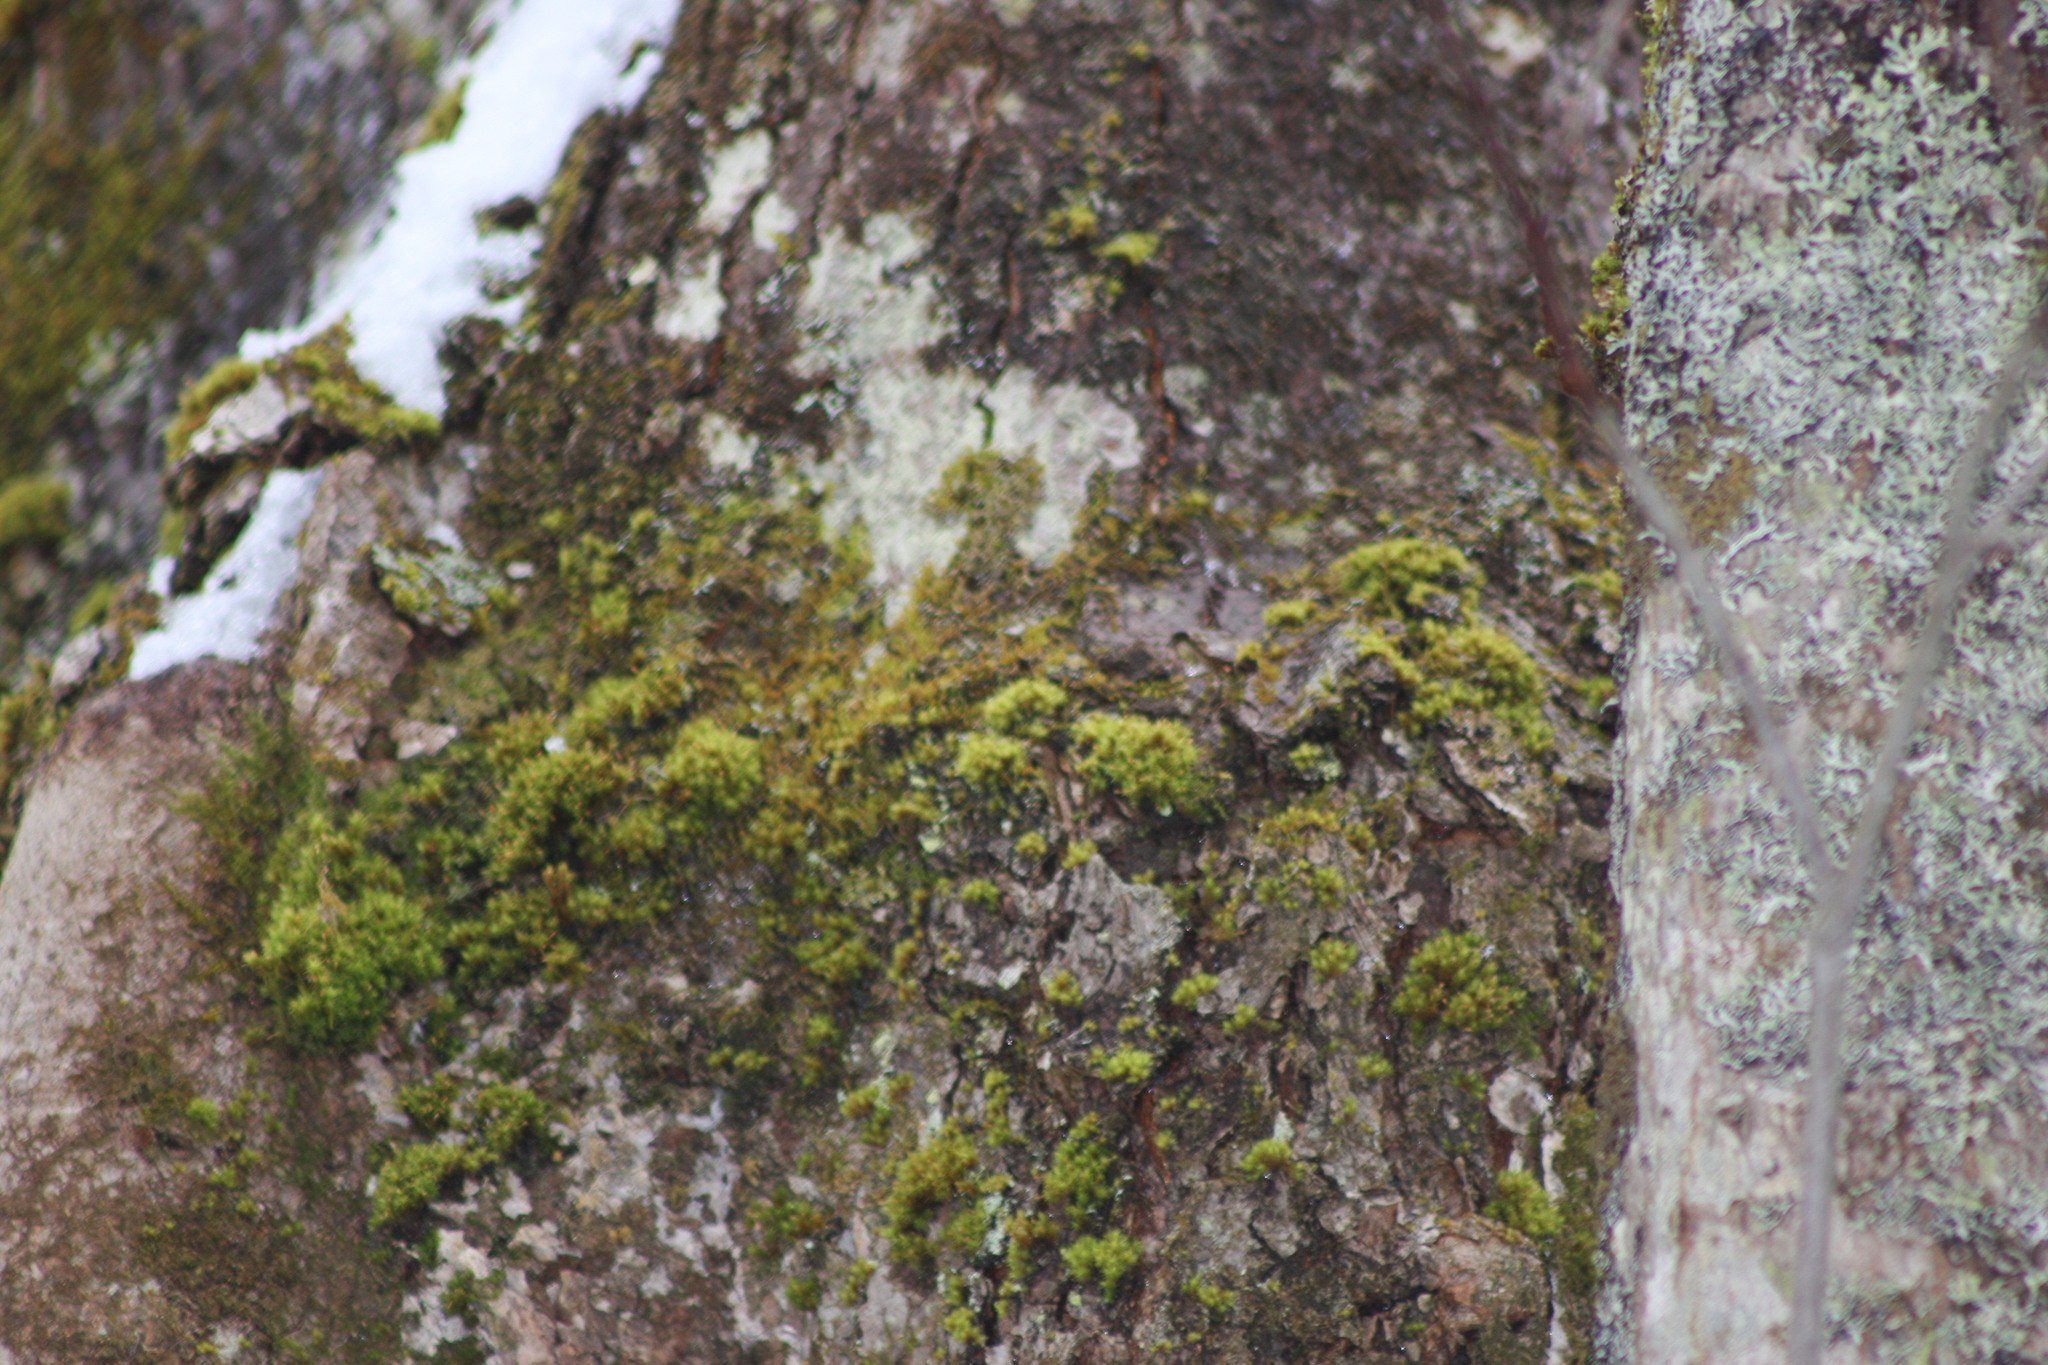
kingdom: Plantae
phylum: Bryophyta
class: Bryopsida
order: Orthotrichales
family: Orthotrichaceae
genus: Ulota
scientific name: Ulota crispa
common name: Crisped pincushion moss
